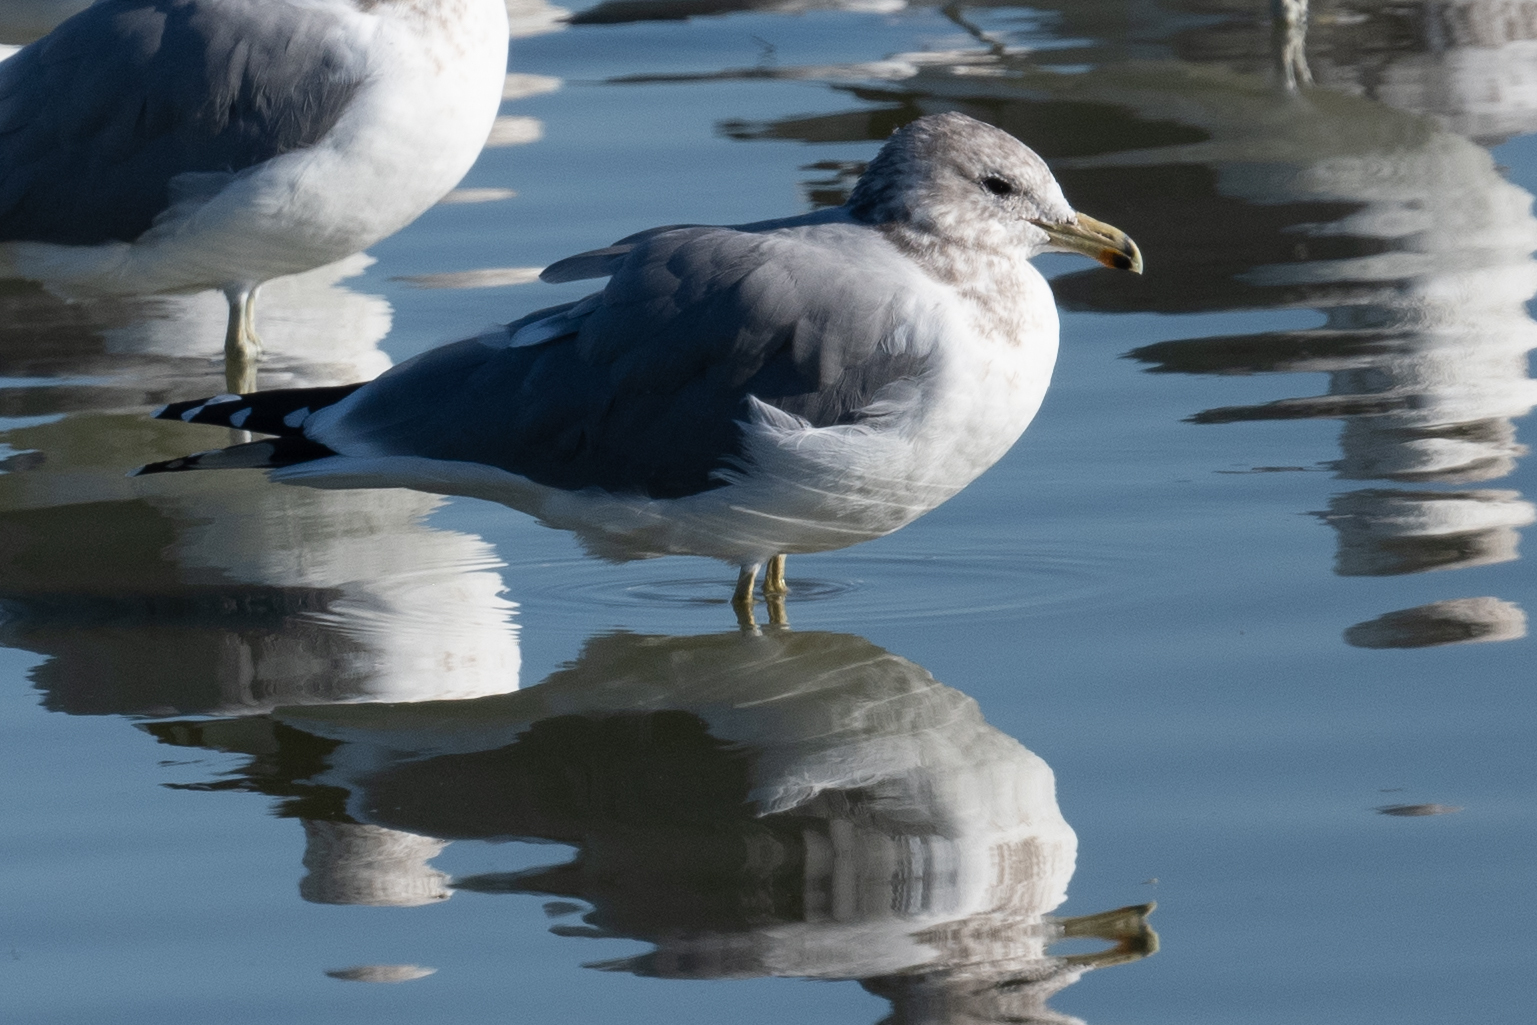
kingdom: Animalia
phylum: Chordata
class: Aves
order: Charadriiformes
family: Laridae
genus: Larus
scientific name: Larus californicus
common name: California gull
